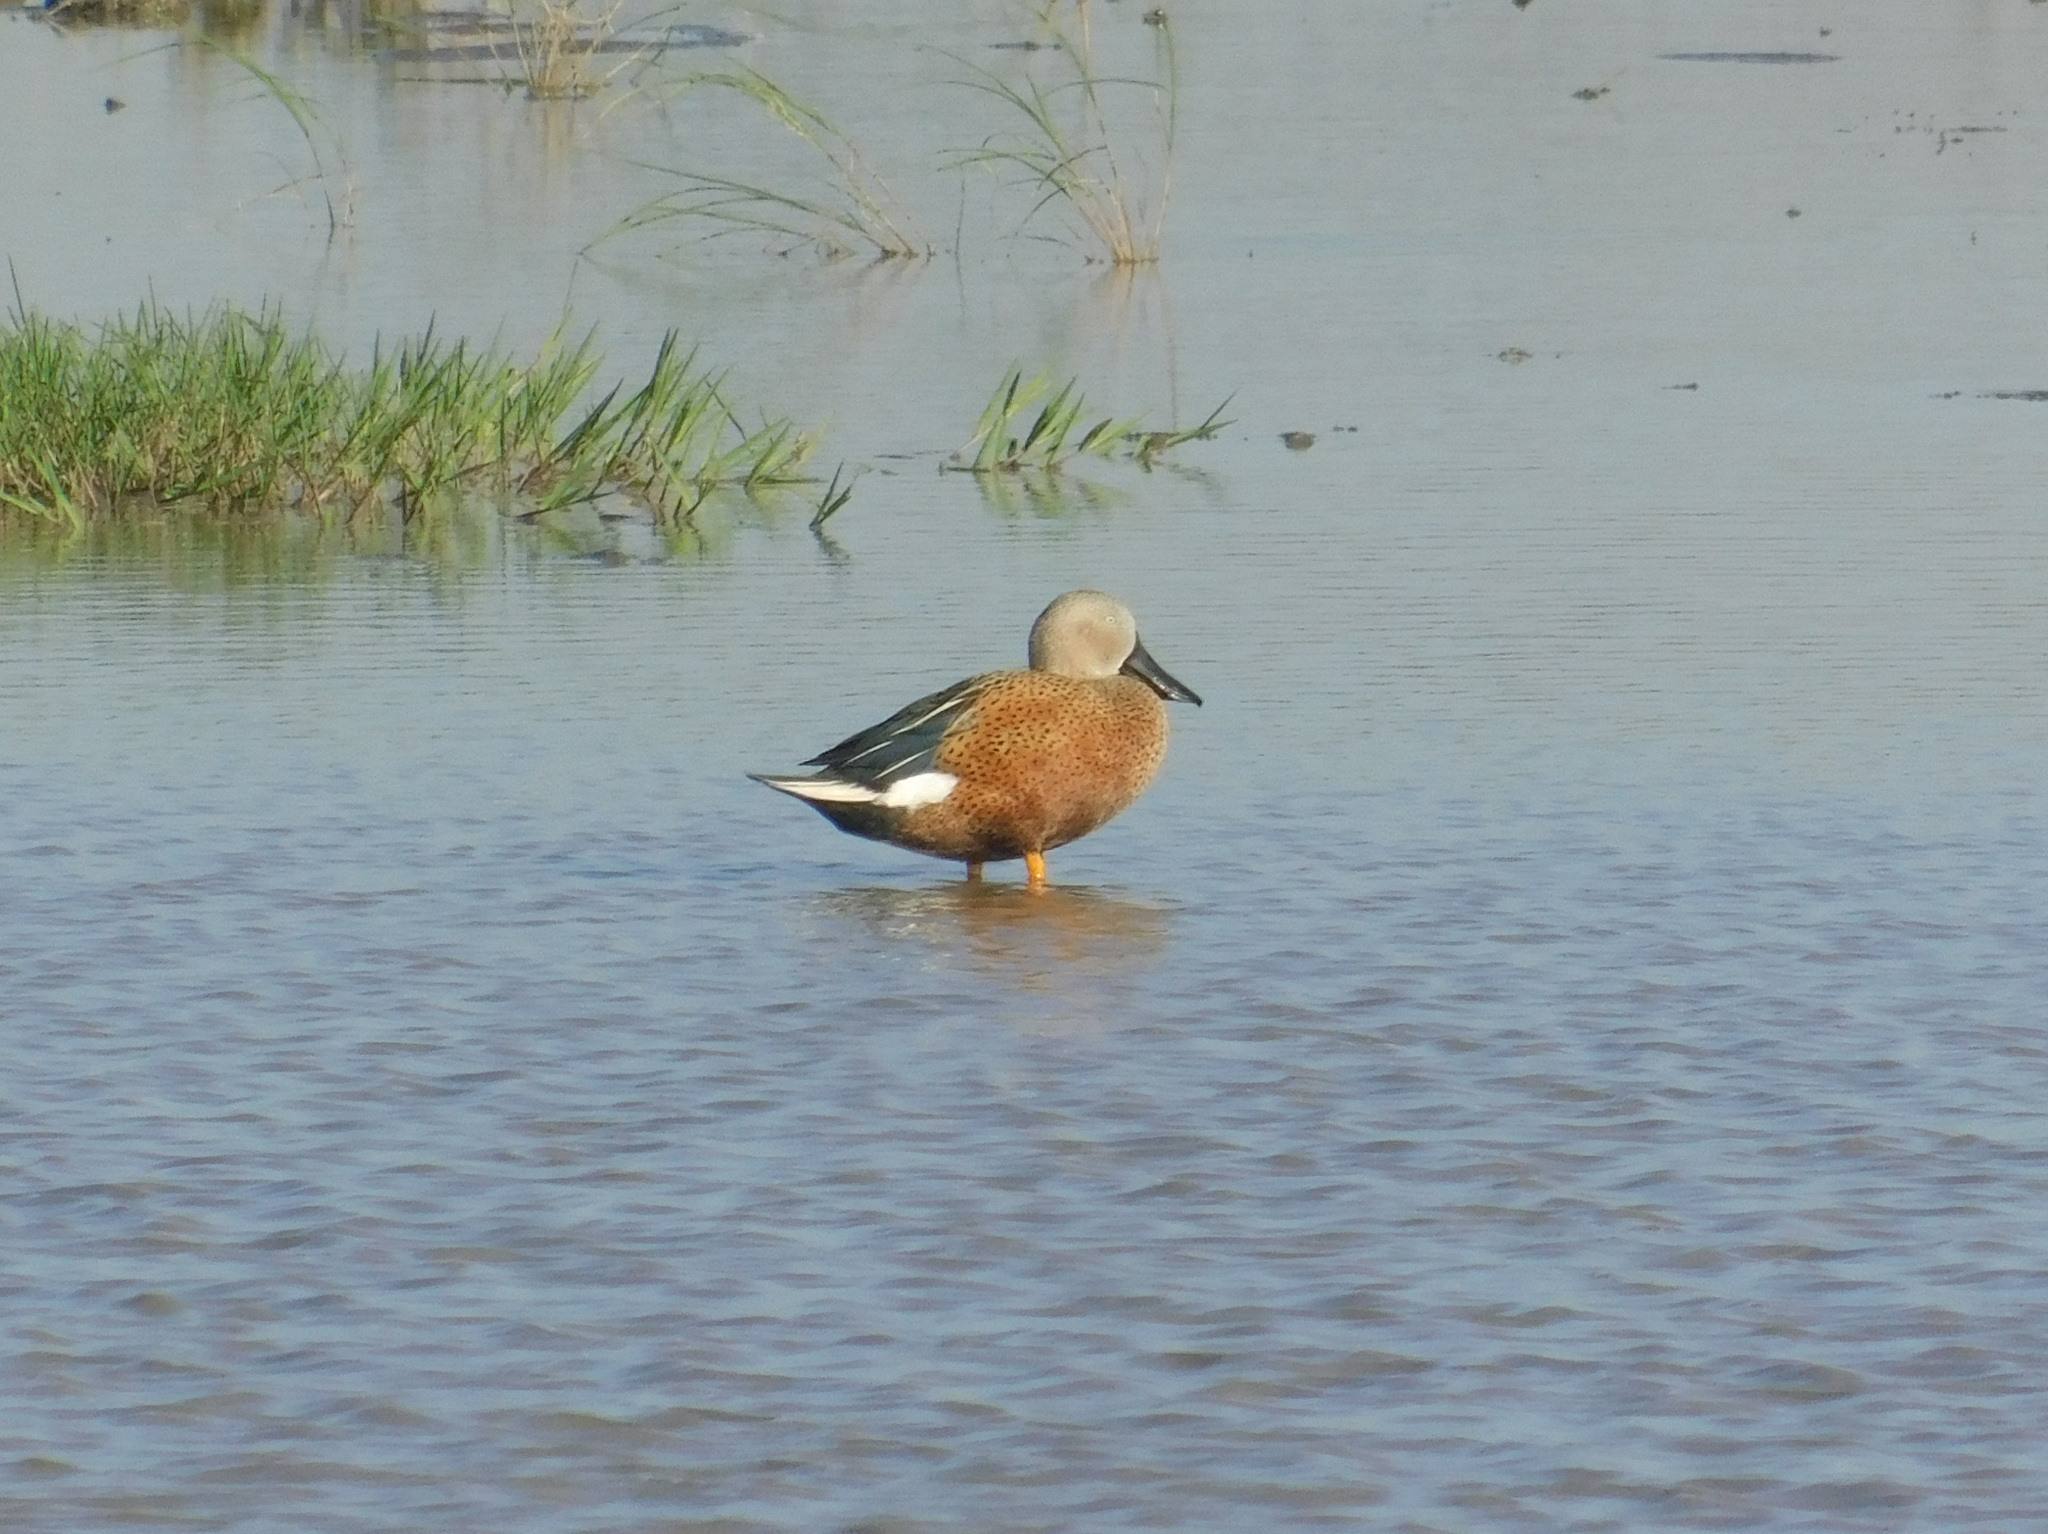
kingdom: Animalia
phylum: Chordata
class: Aves
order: Anseriformes
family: Anatidae
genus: Spatula
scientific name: Spatula platalea
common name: Red shoveler
